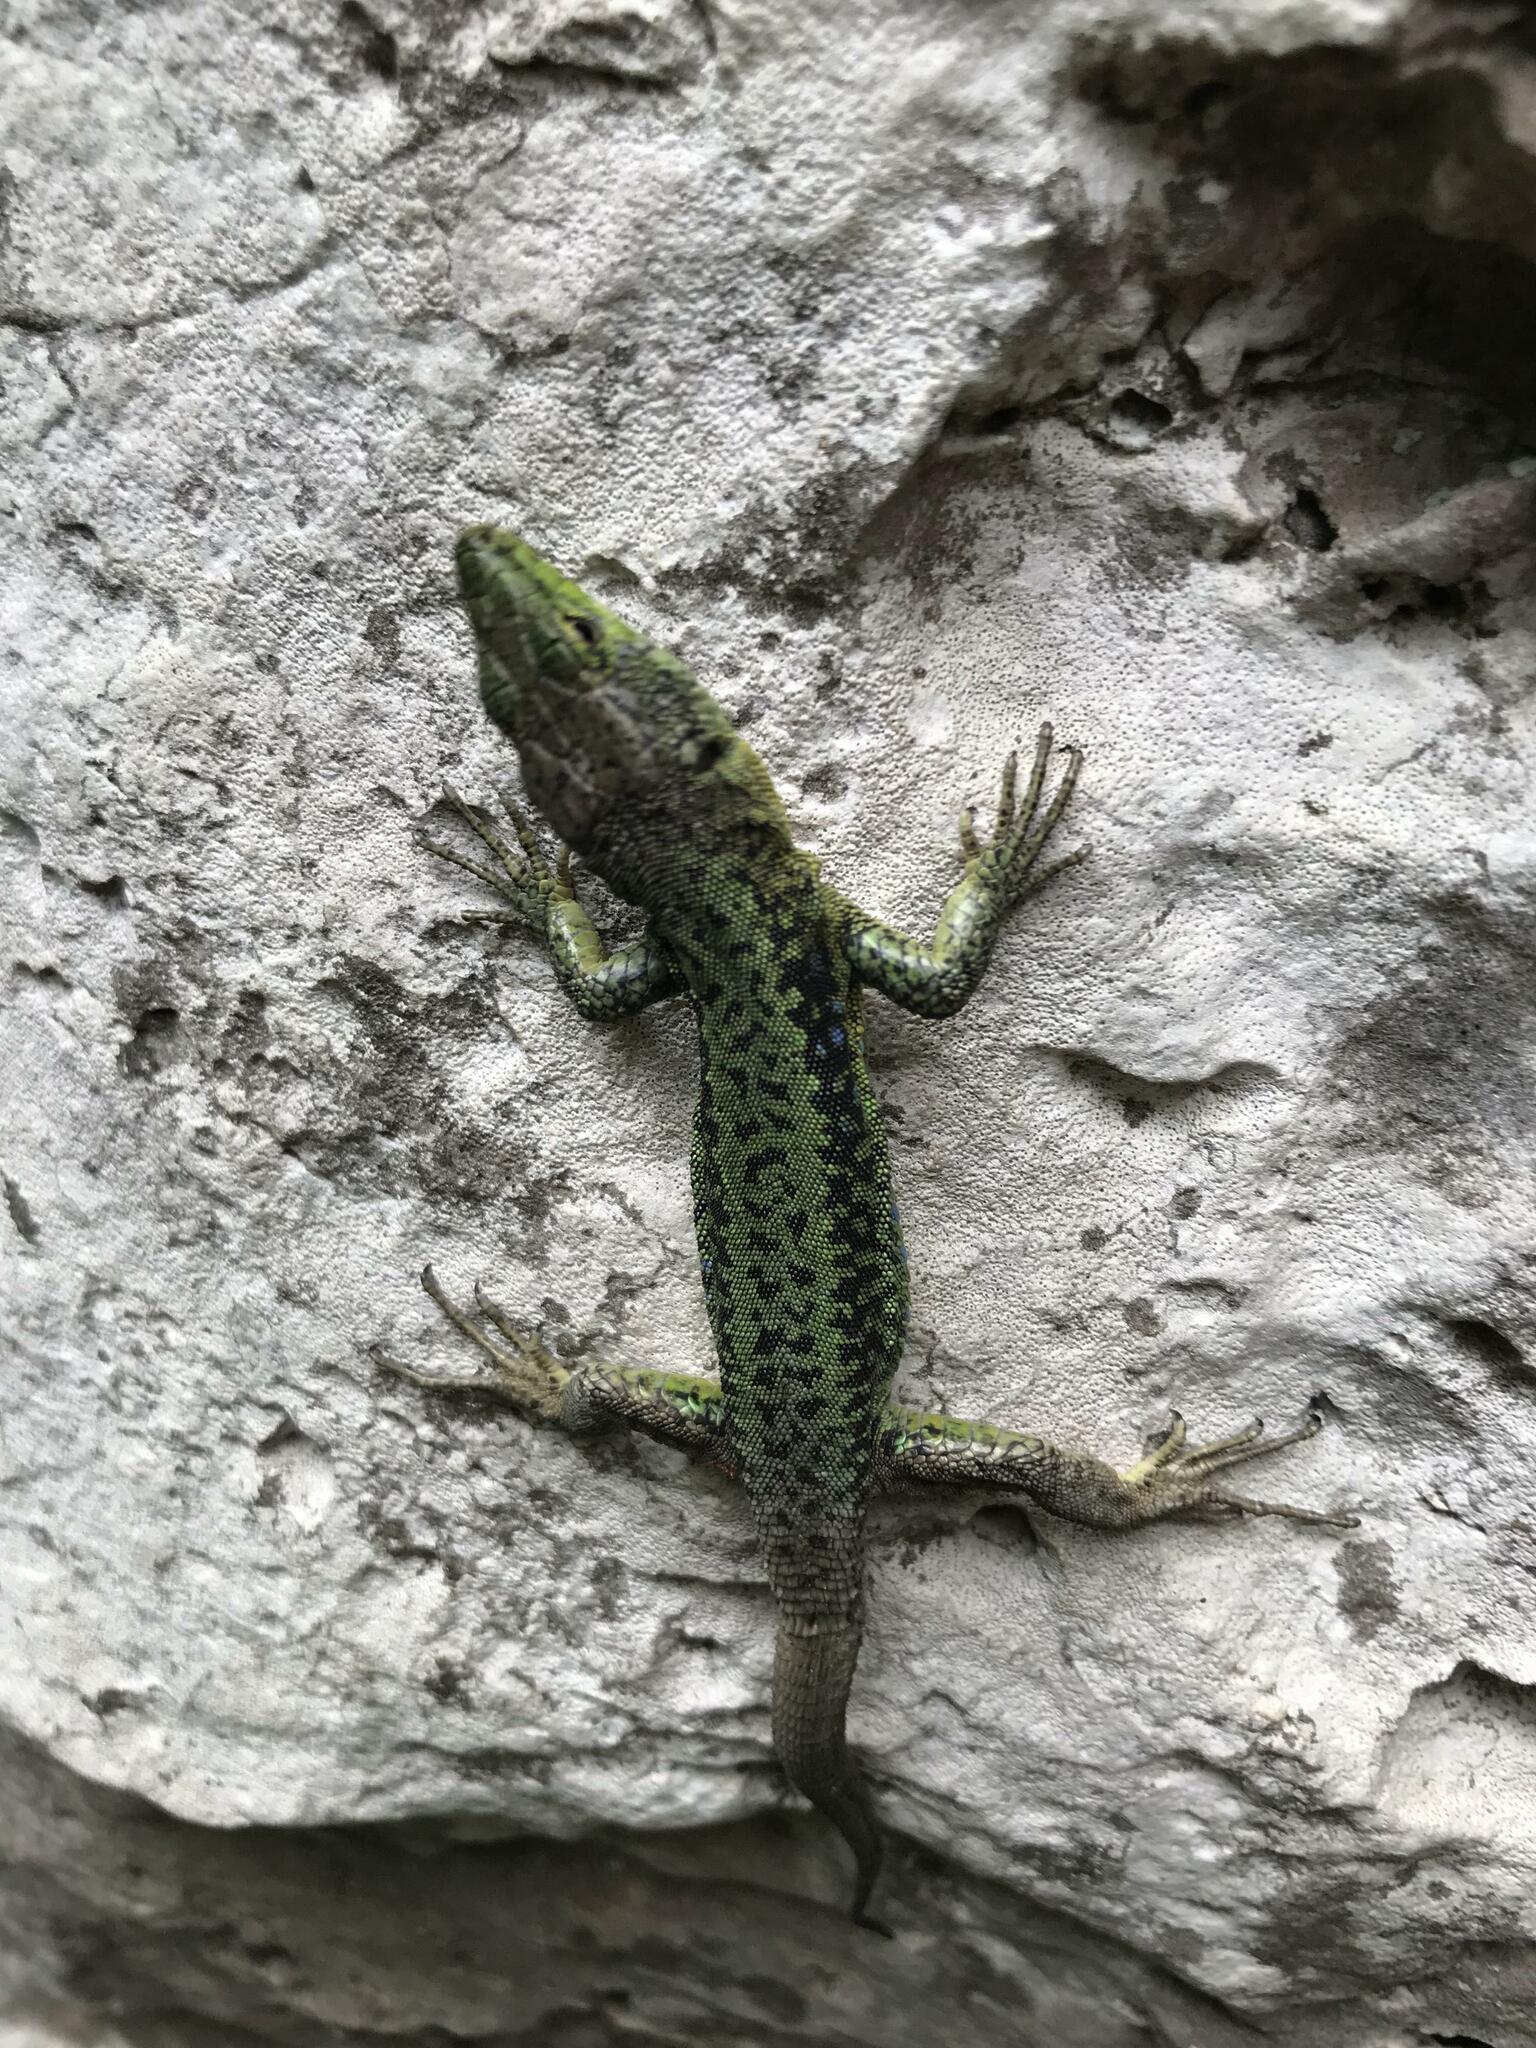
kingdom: Animalia
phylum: Chordata
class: Squamata
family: Lacertidae
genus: Darevskia
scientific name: Darevskia brauneri
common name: Brauner's rock lizard
